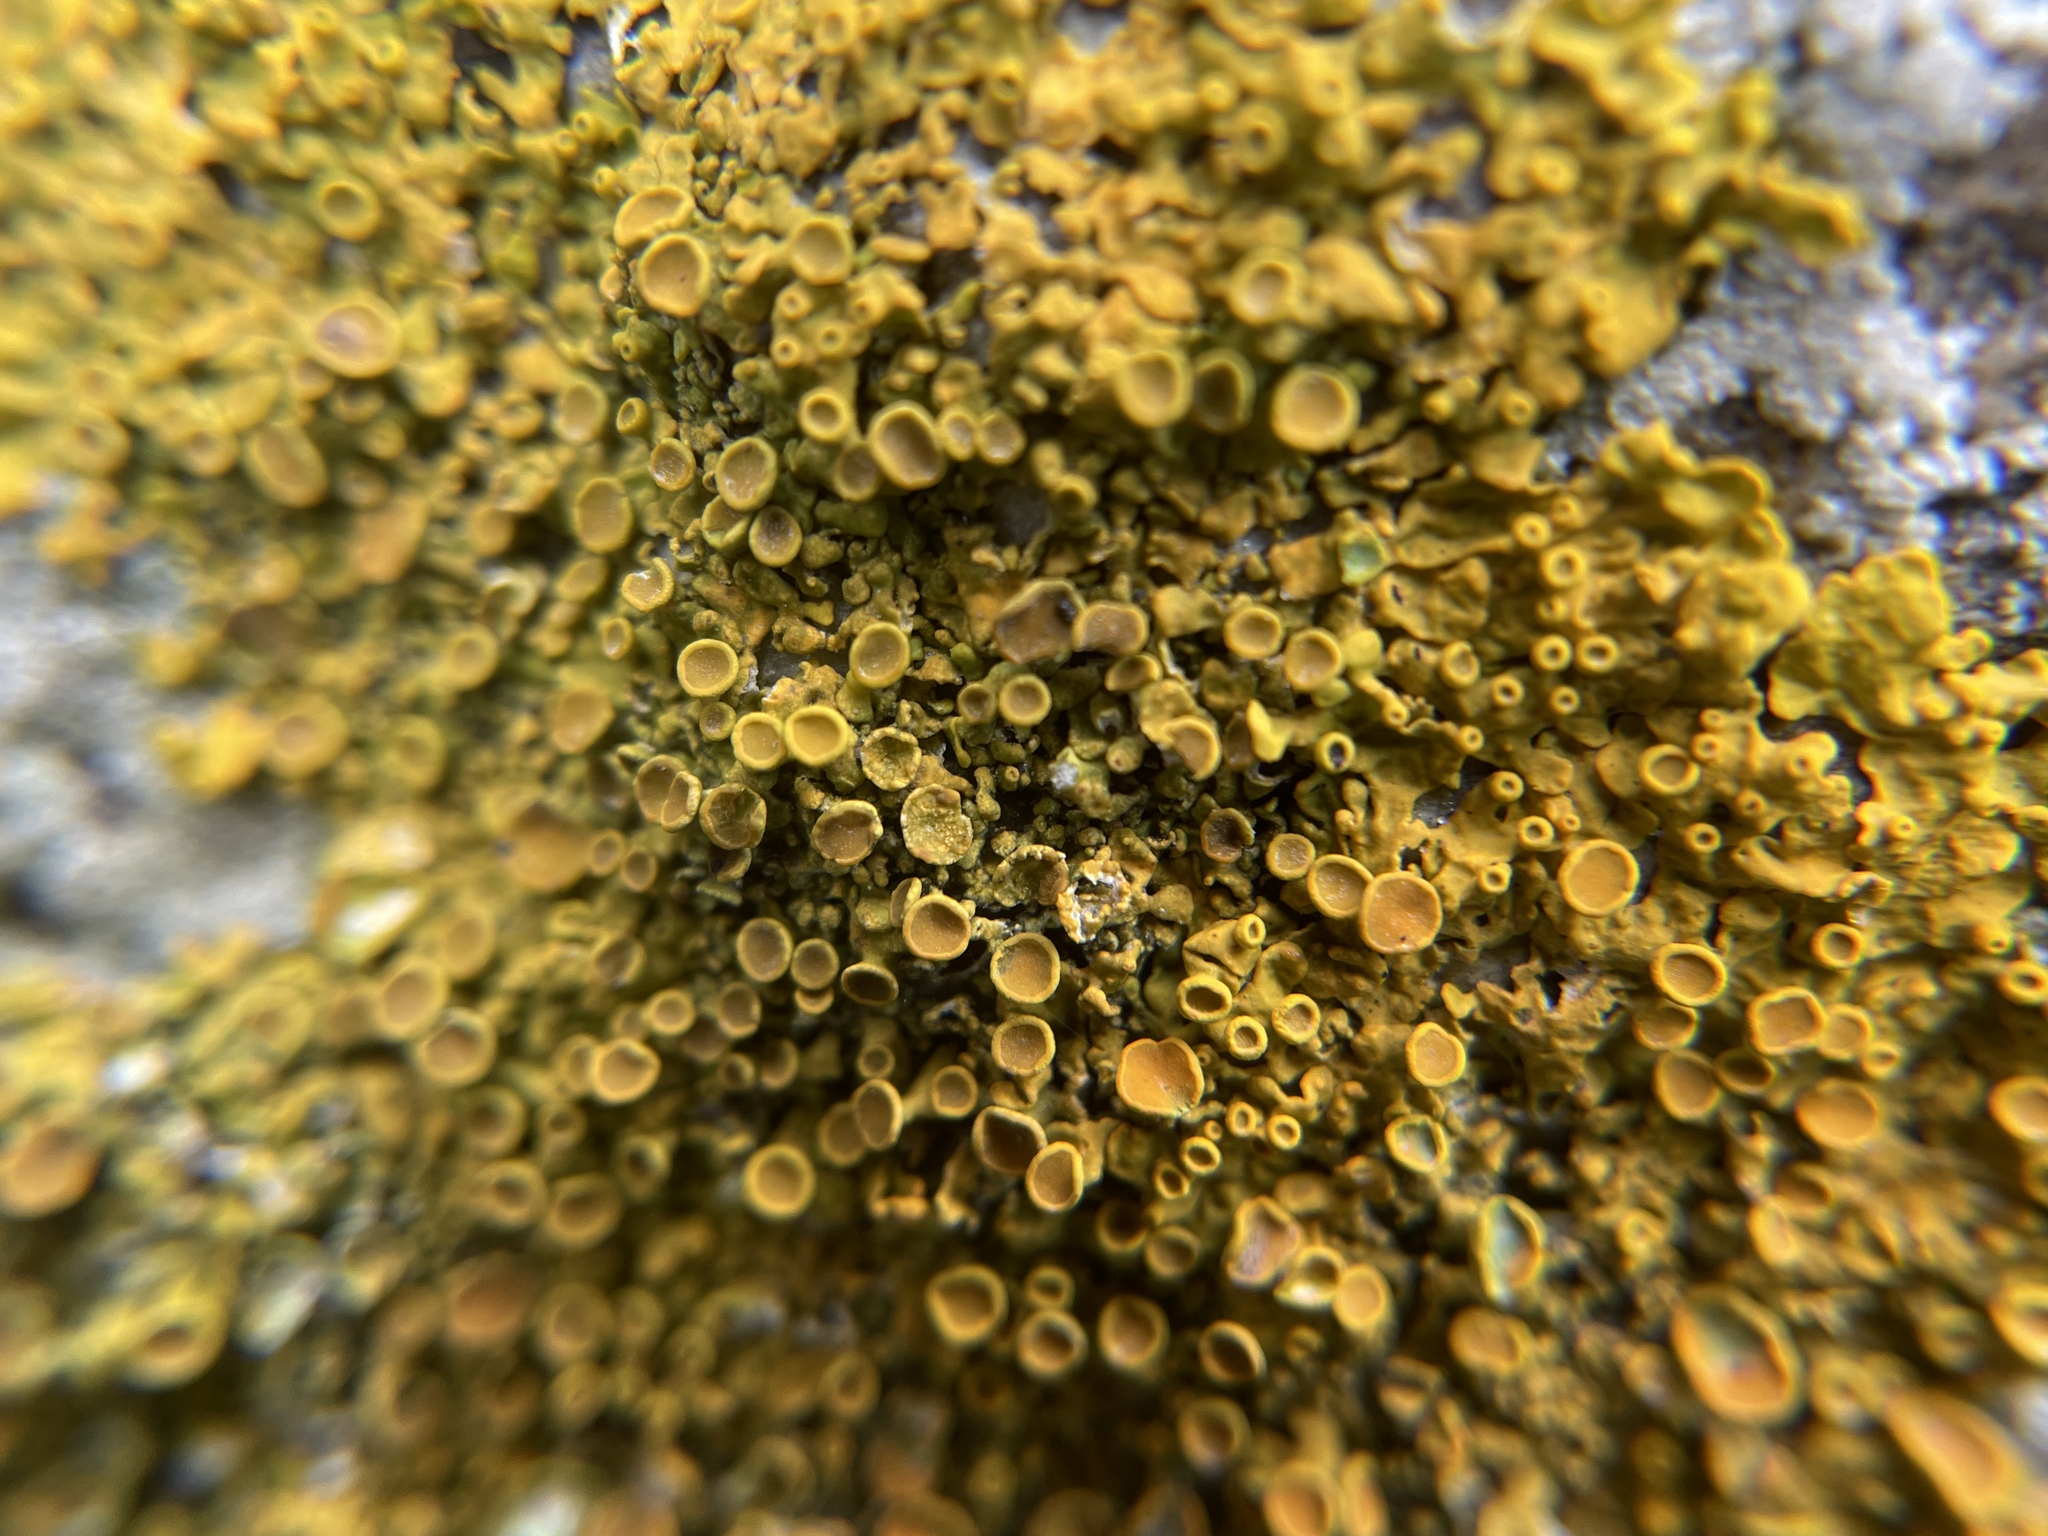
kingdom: Fungi
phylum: Ascomycota
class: Lecanoromycetes
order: Teloschistales
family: Teloschistaceae
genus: Xanthoria
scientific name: Xanthoria parietina
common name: Common orange lichen
